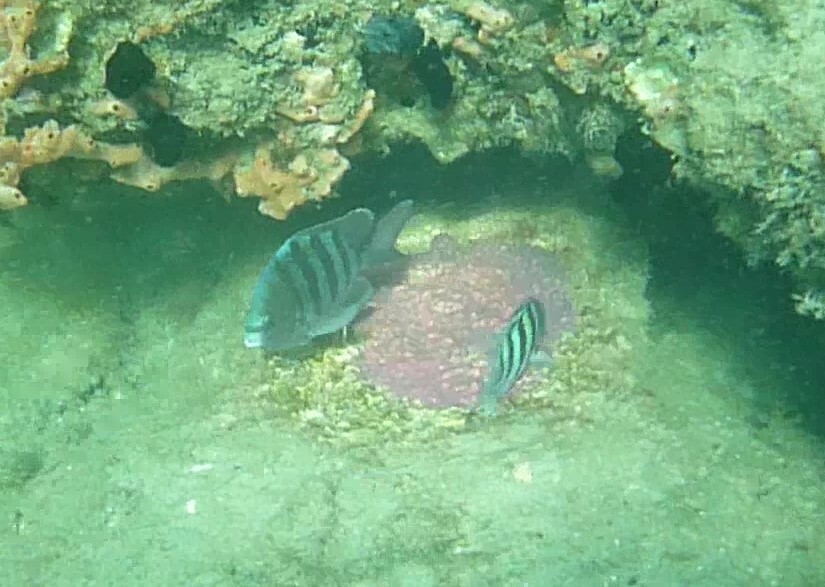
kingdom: Animalia
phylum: Chordata
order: Perciformes
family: Pomacentridae
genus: Abudefduf
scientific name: Abudefduf saxatilis
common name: Sergeant major
